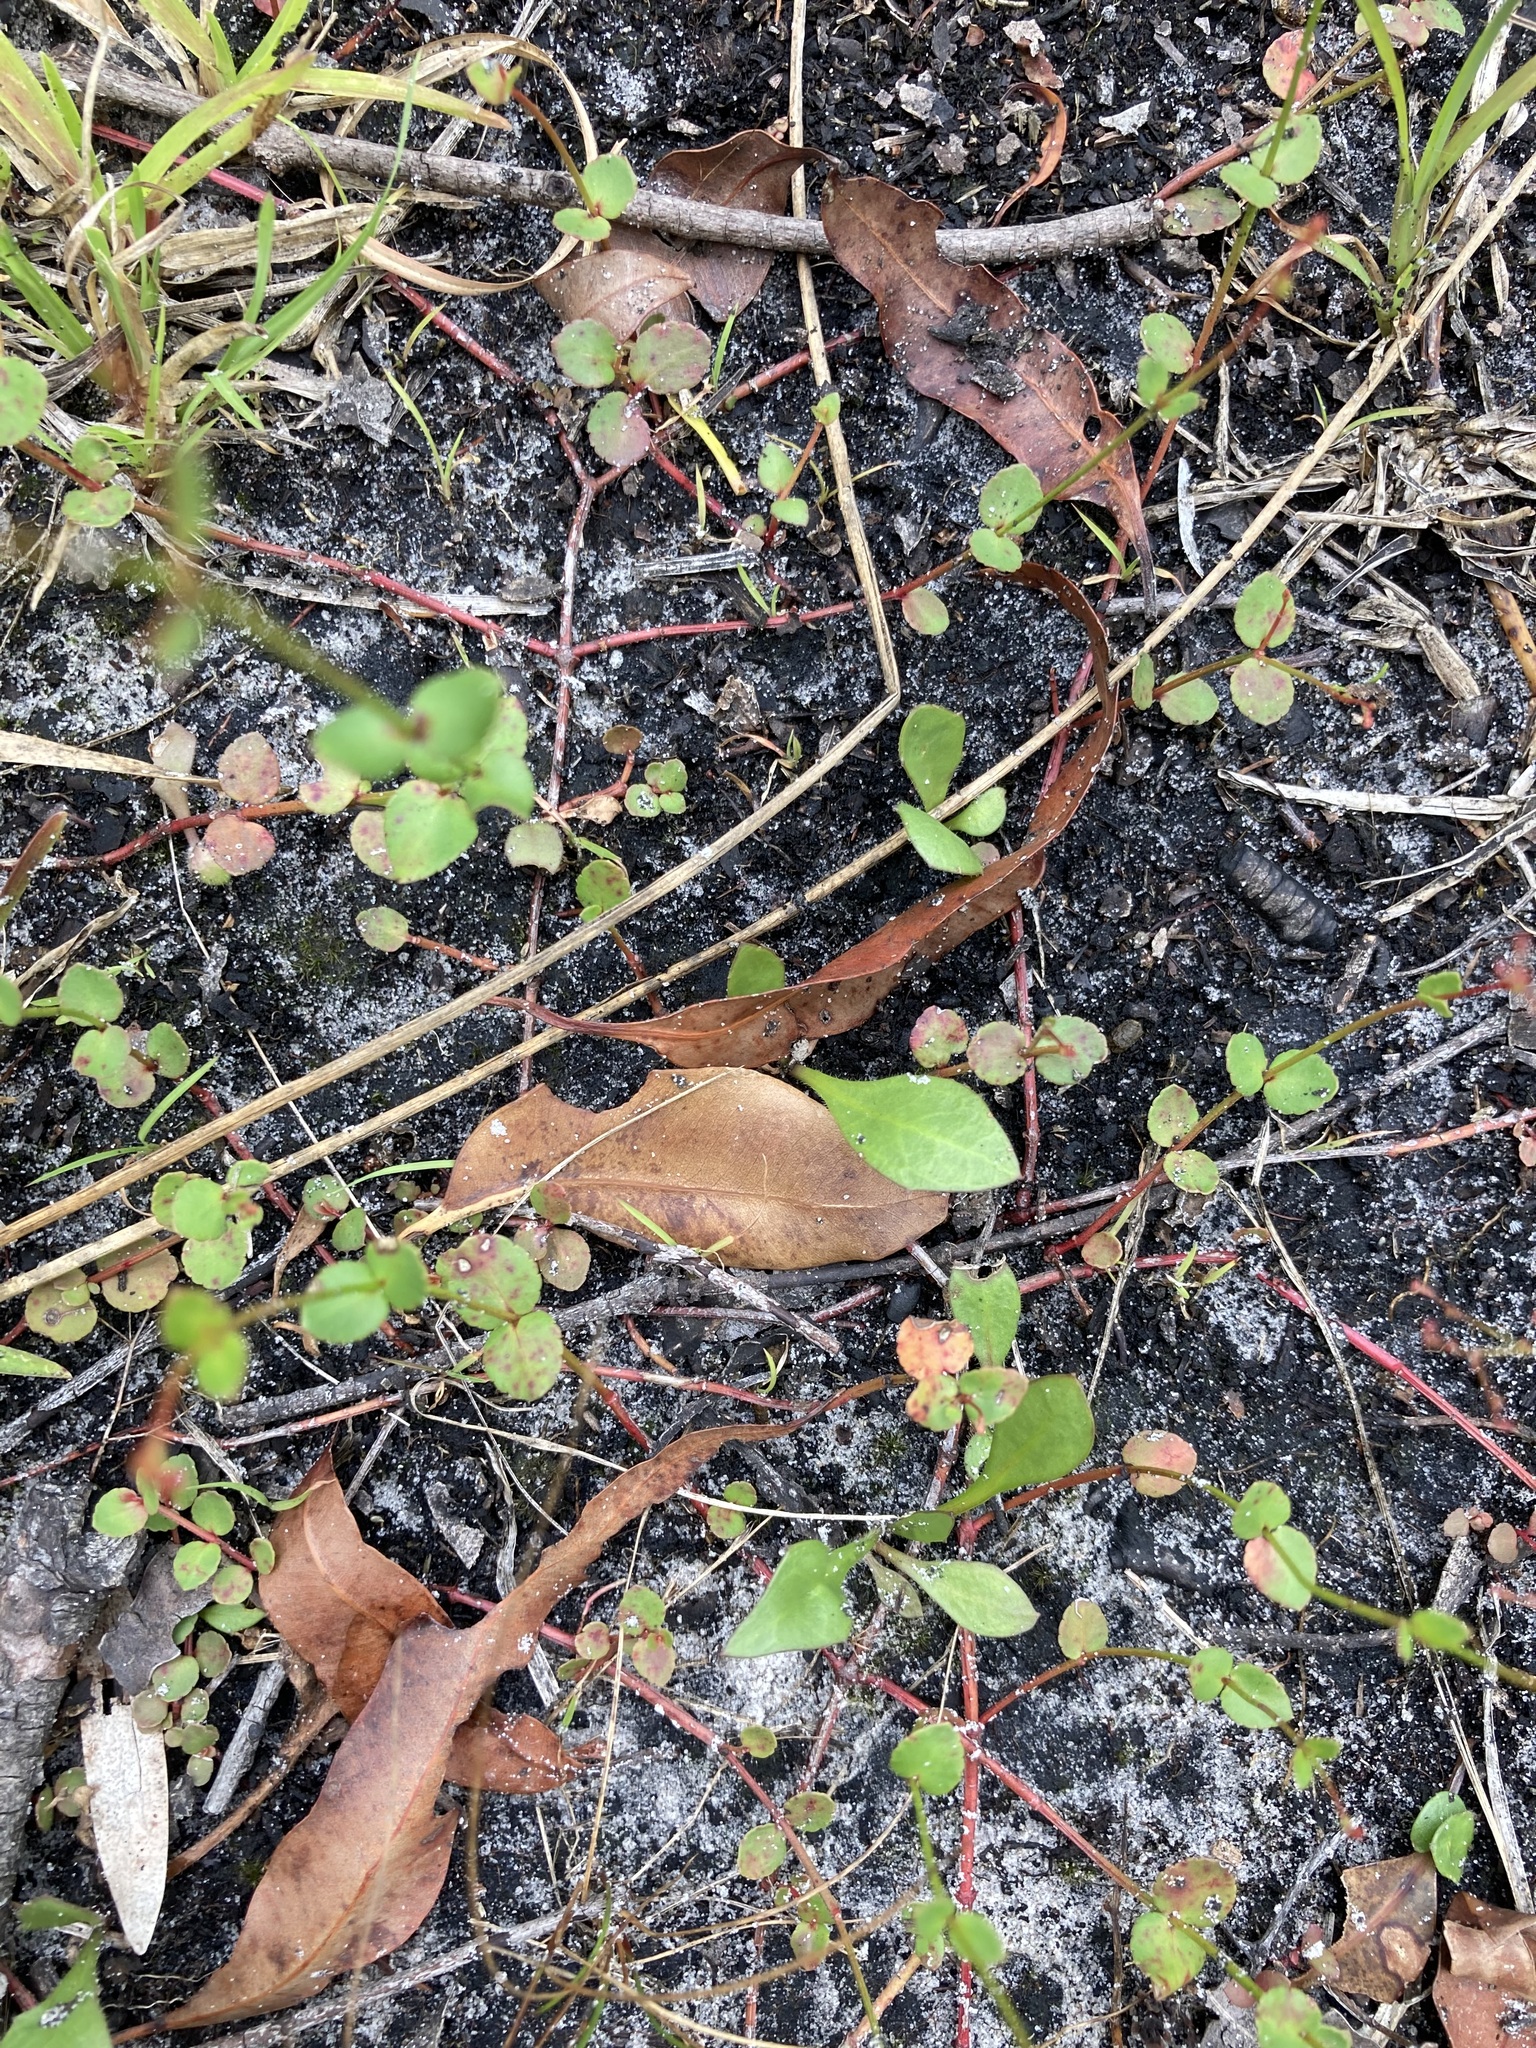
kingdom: Plantae
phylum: Tracheophyta
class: Magnoliopsida
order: Saxifragales
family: Haloragaceae
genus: Gonocarpus
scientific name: Gonocarpus micranthus
